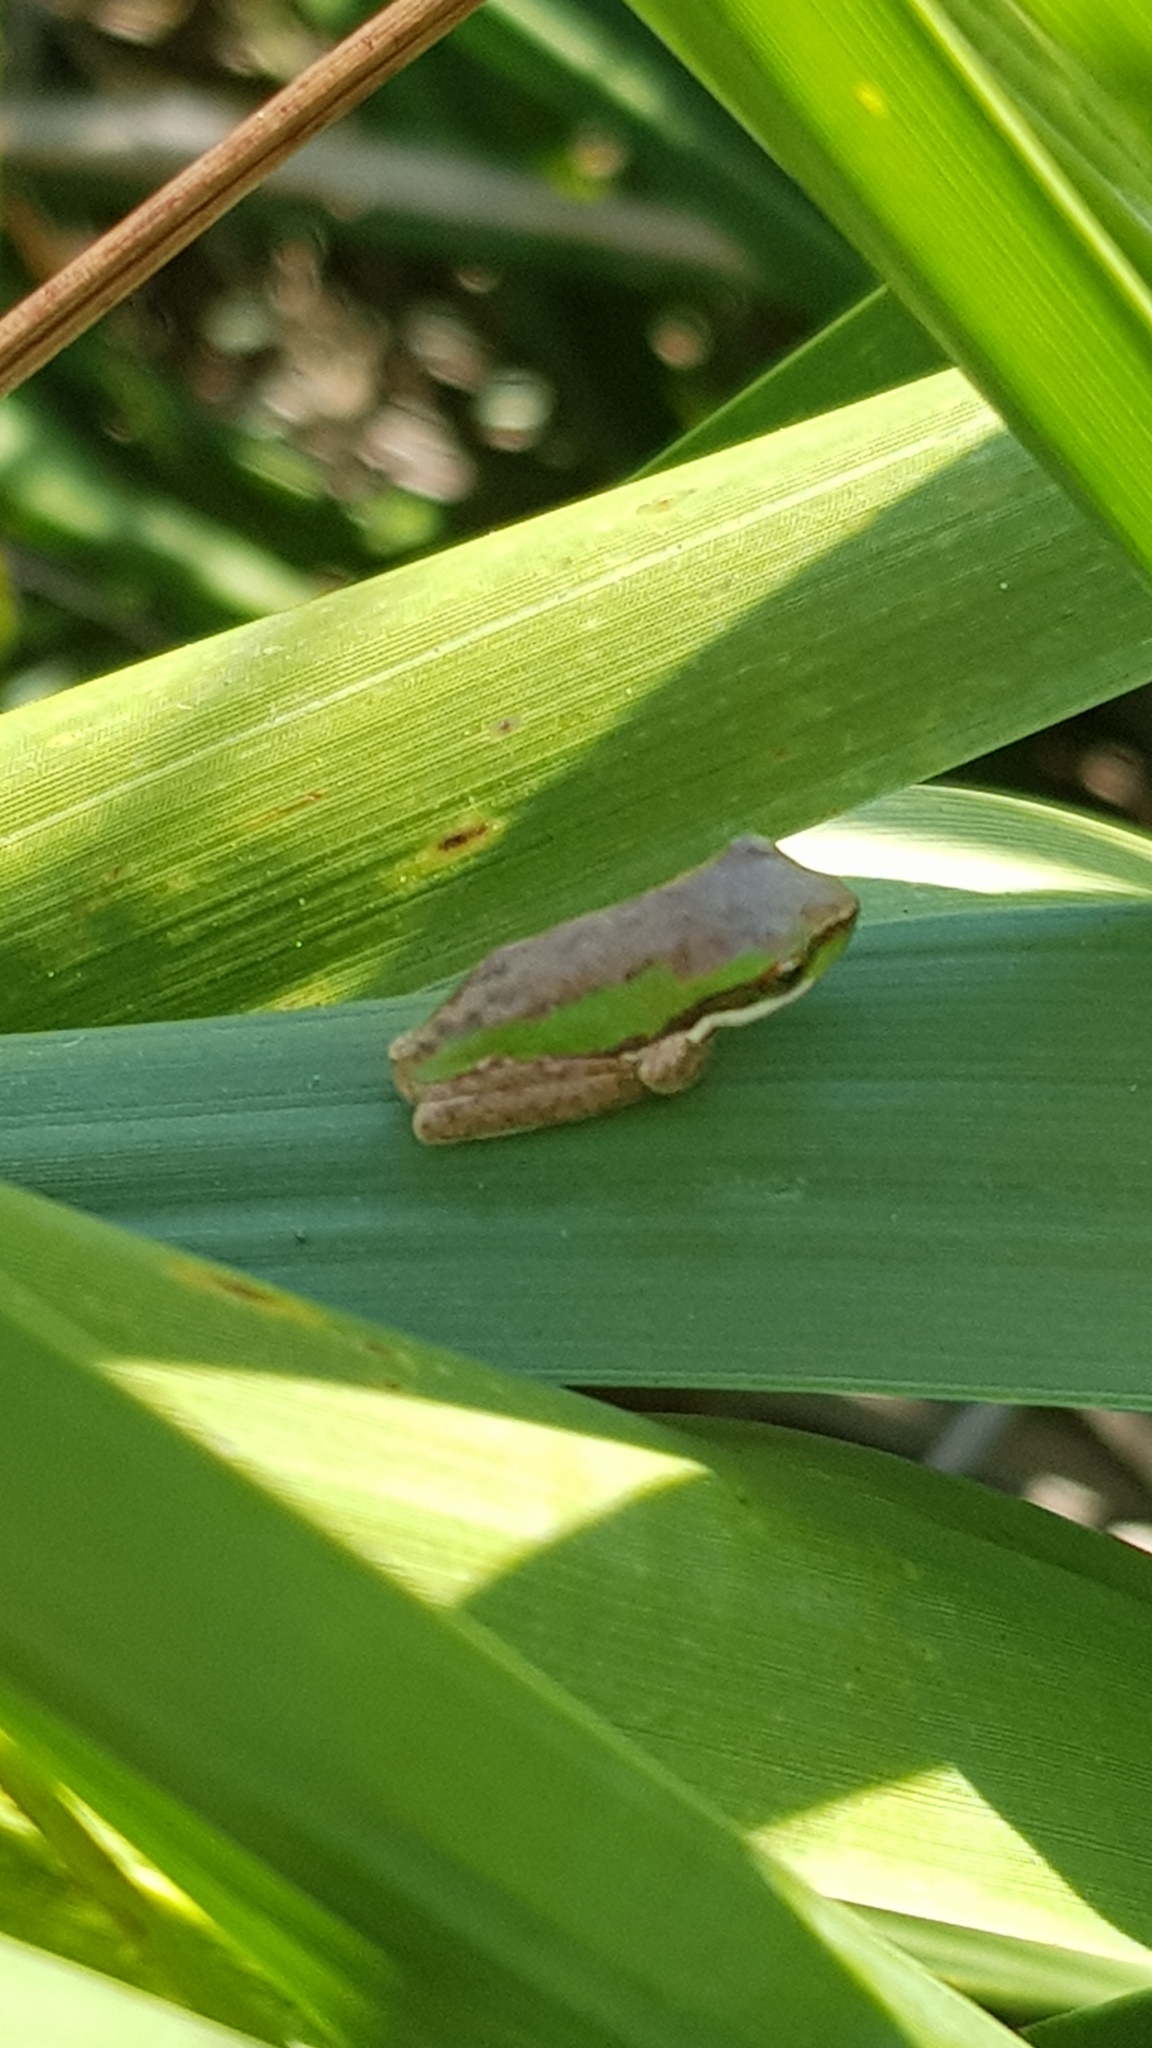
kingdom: Animalia
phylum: Chordata
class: Amphibia
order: Anura
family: Pelodryadidae
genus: Litoria
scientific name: Litoria fallax
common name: Eastern dwarf treefrog
